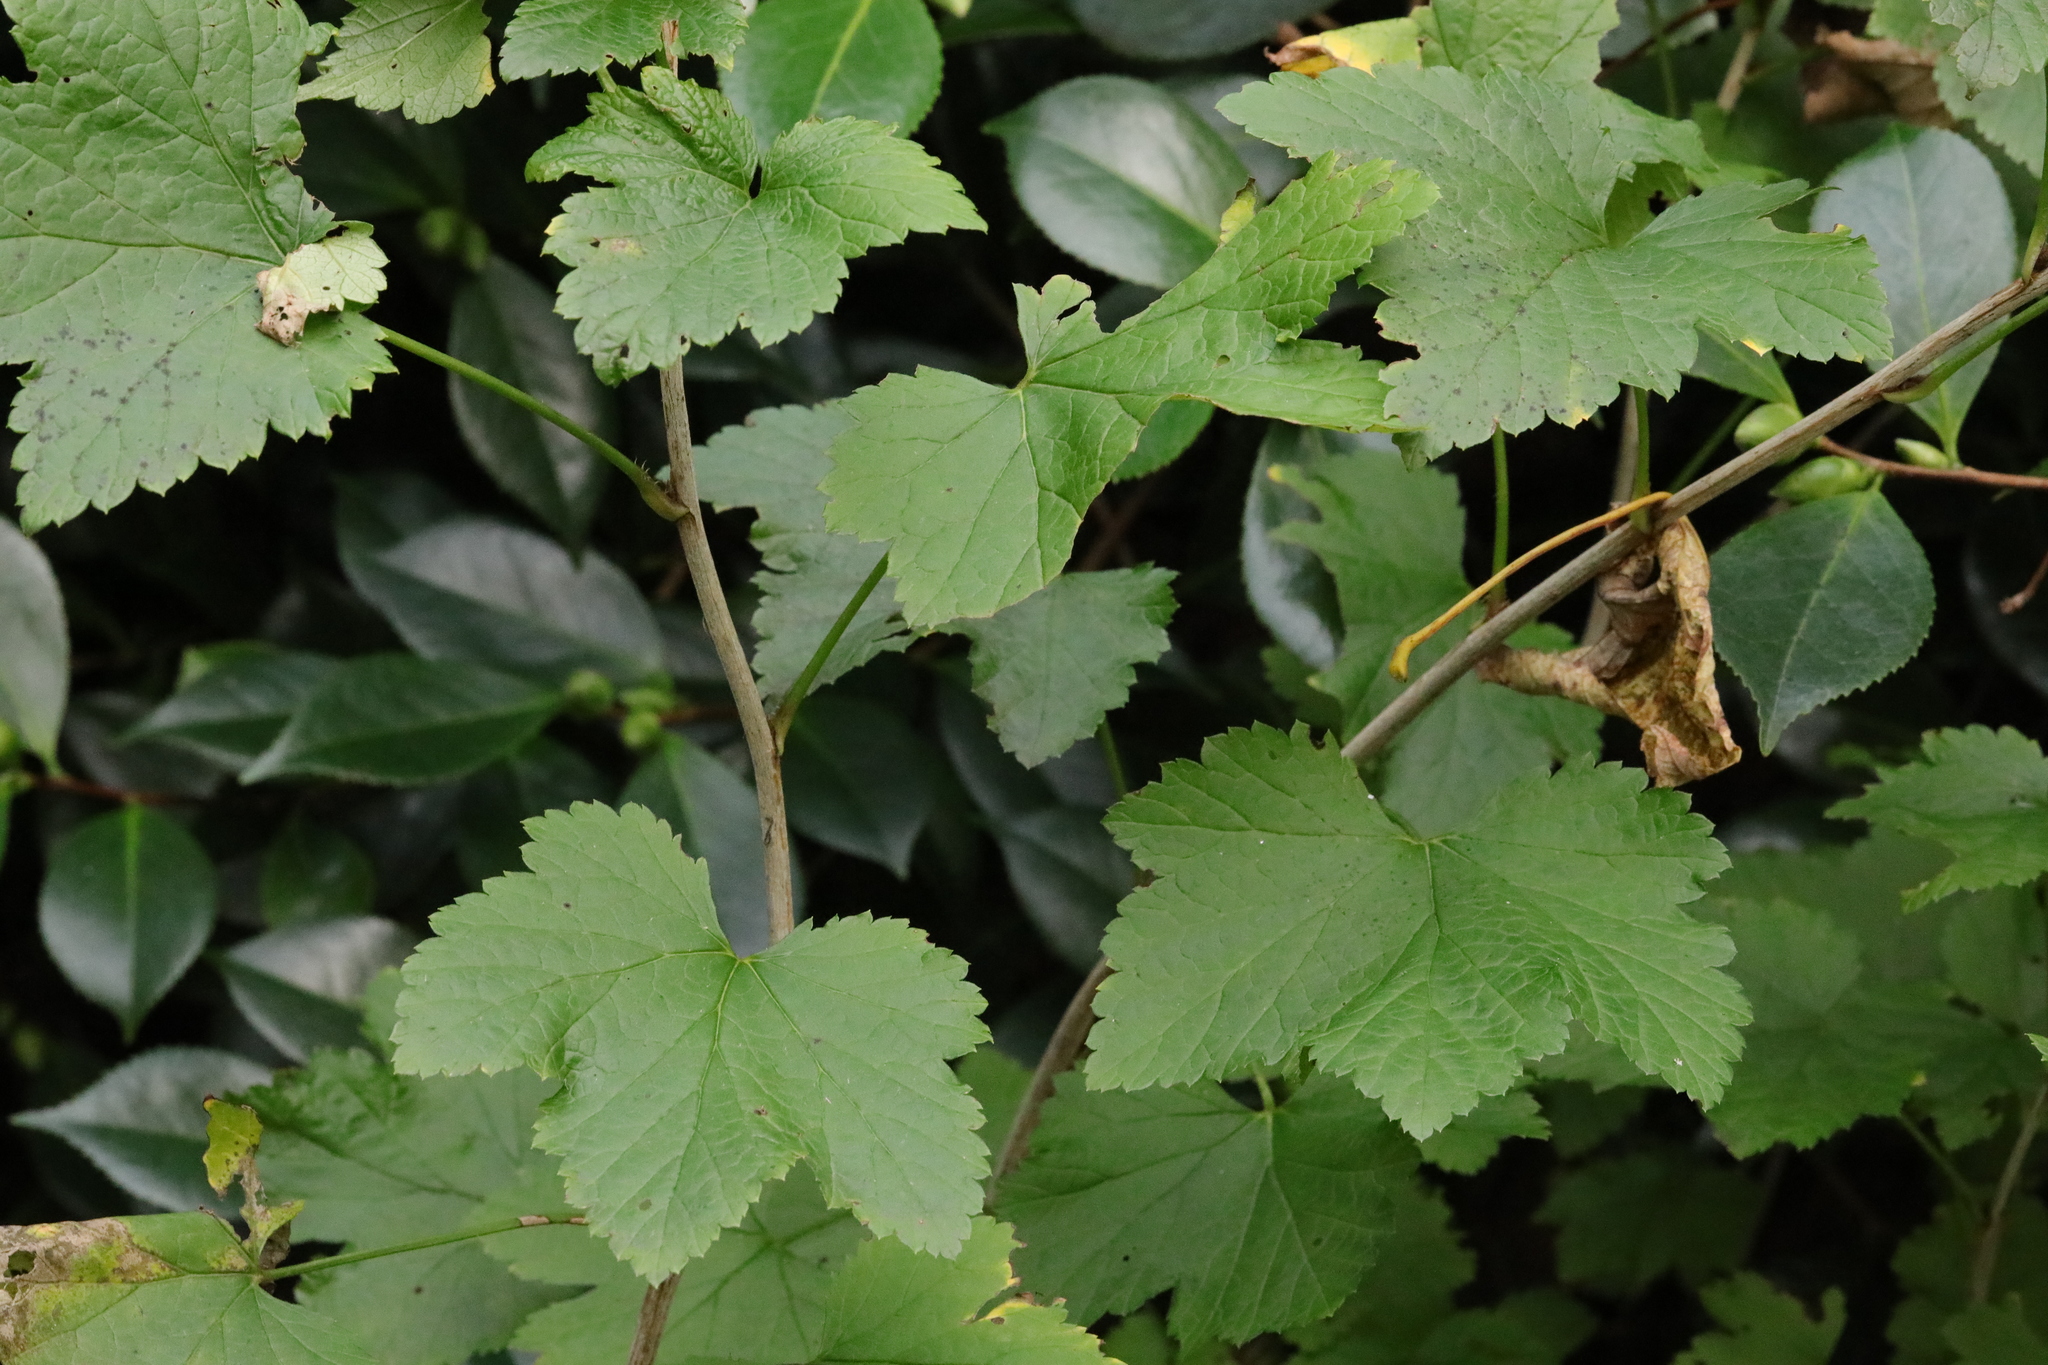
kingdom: Plantae
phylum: Tracheophyta
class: Magnoliopsida
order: Saxifragales
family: Grossulariaceae
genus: Ribes
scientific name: Ribes sanguineum
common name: Flowering currant
